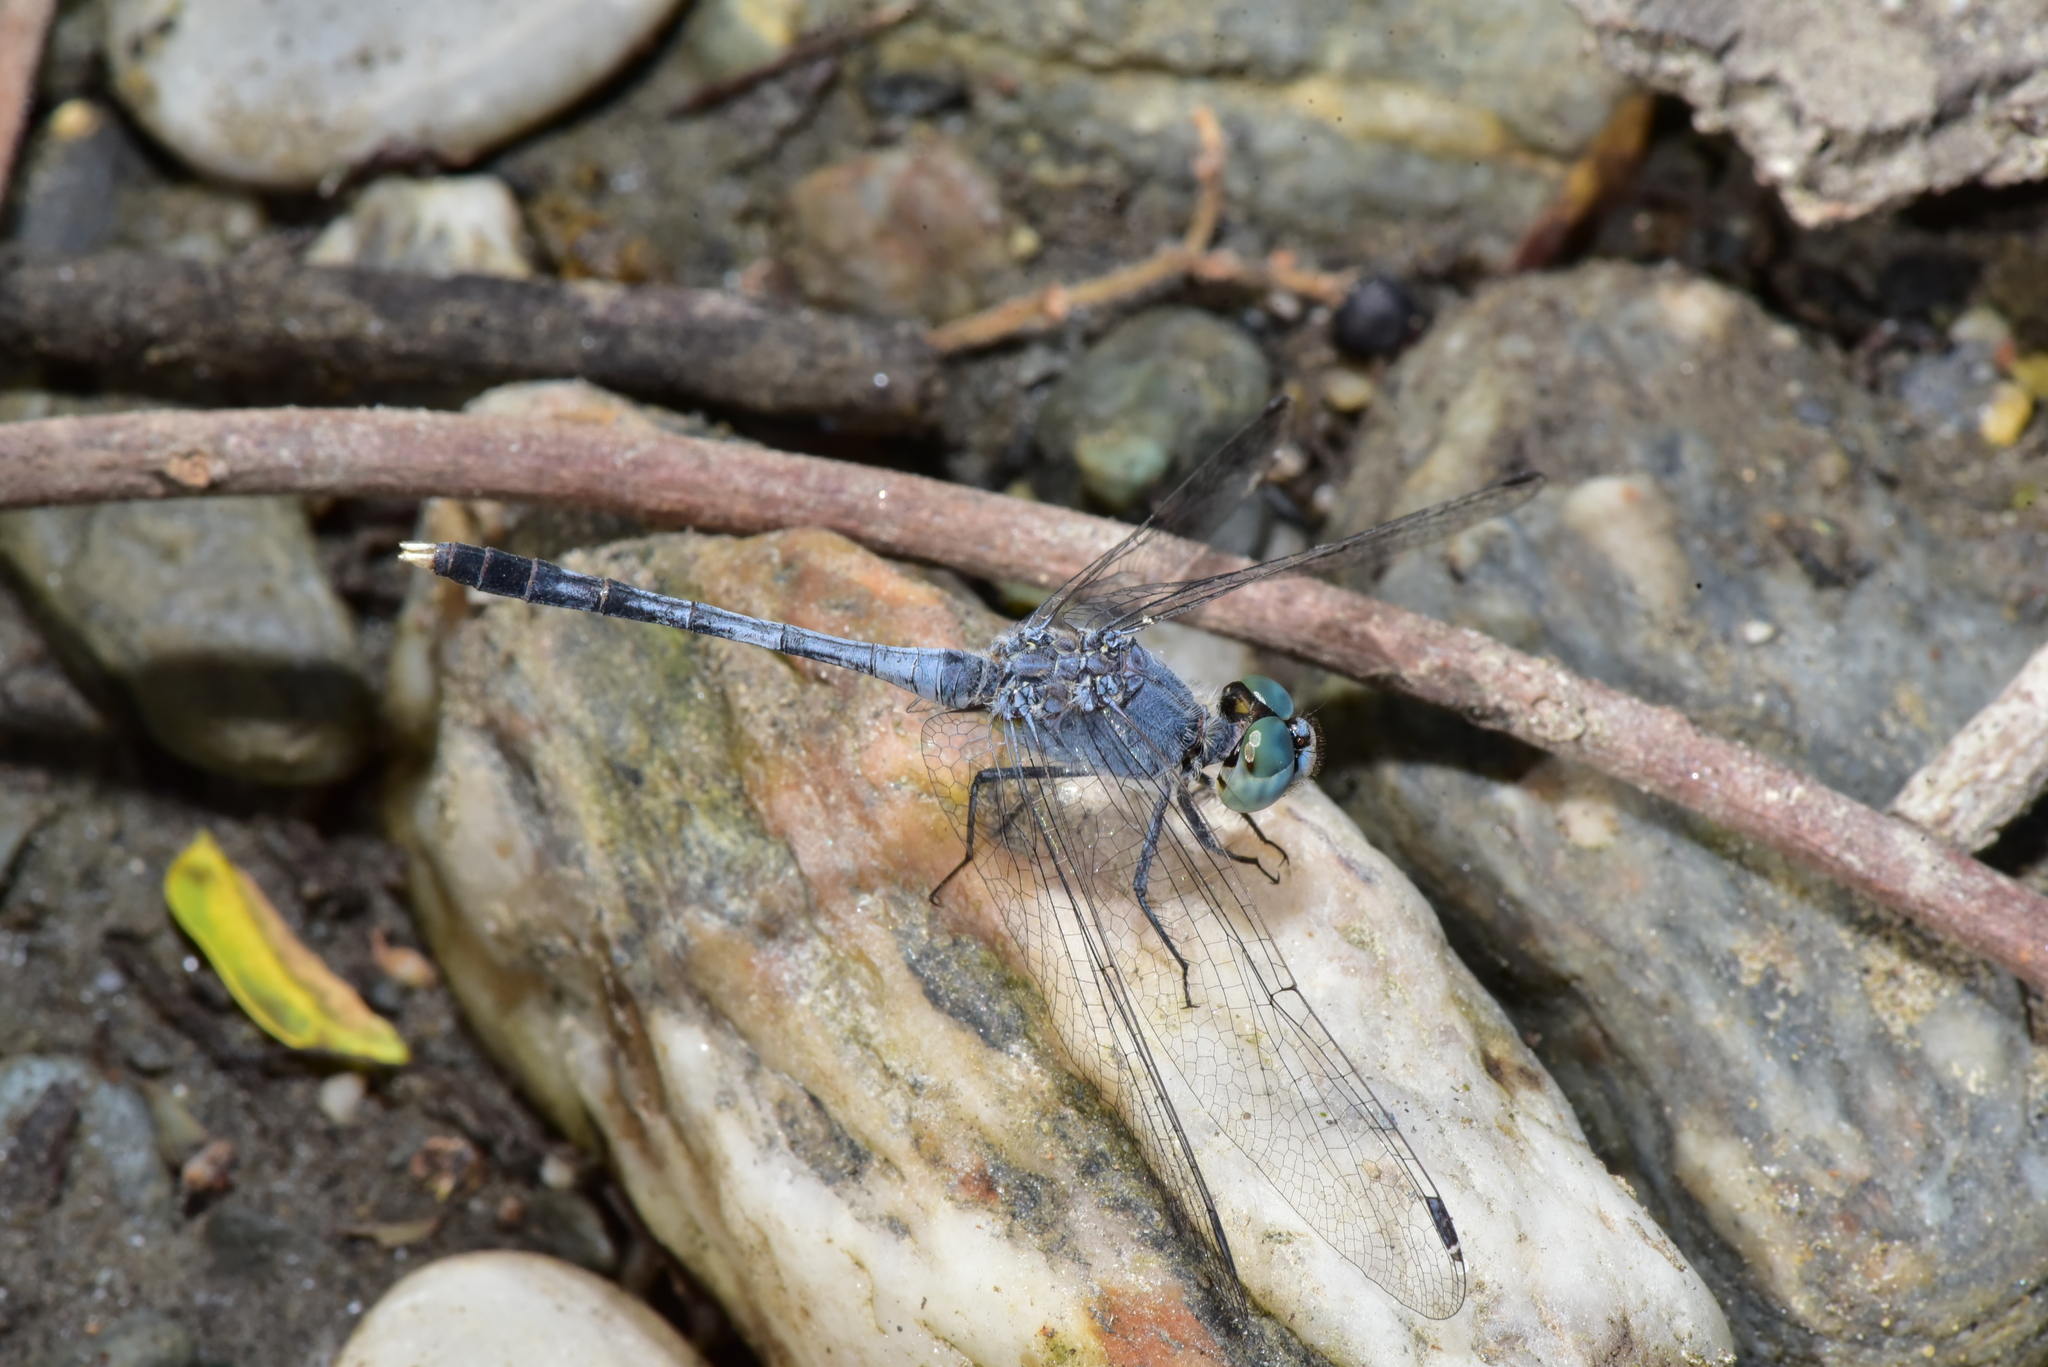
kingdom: Animalia
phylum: Arthropoda
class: Insecta
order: Odonata
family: Libellulidae
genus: Diplacodes
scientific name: Diplacodes trivialis
